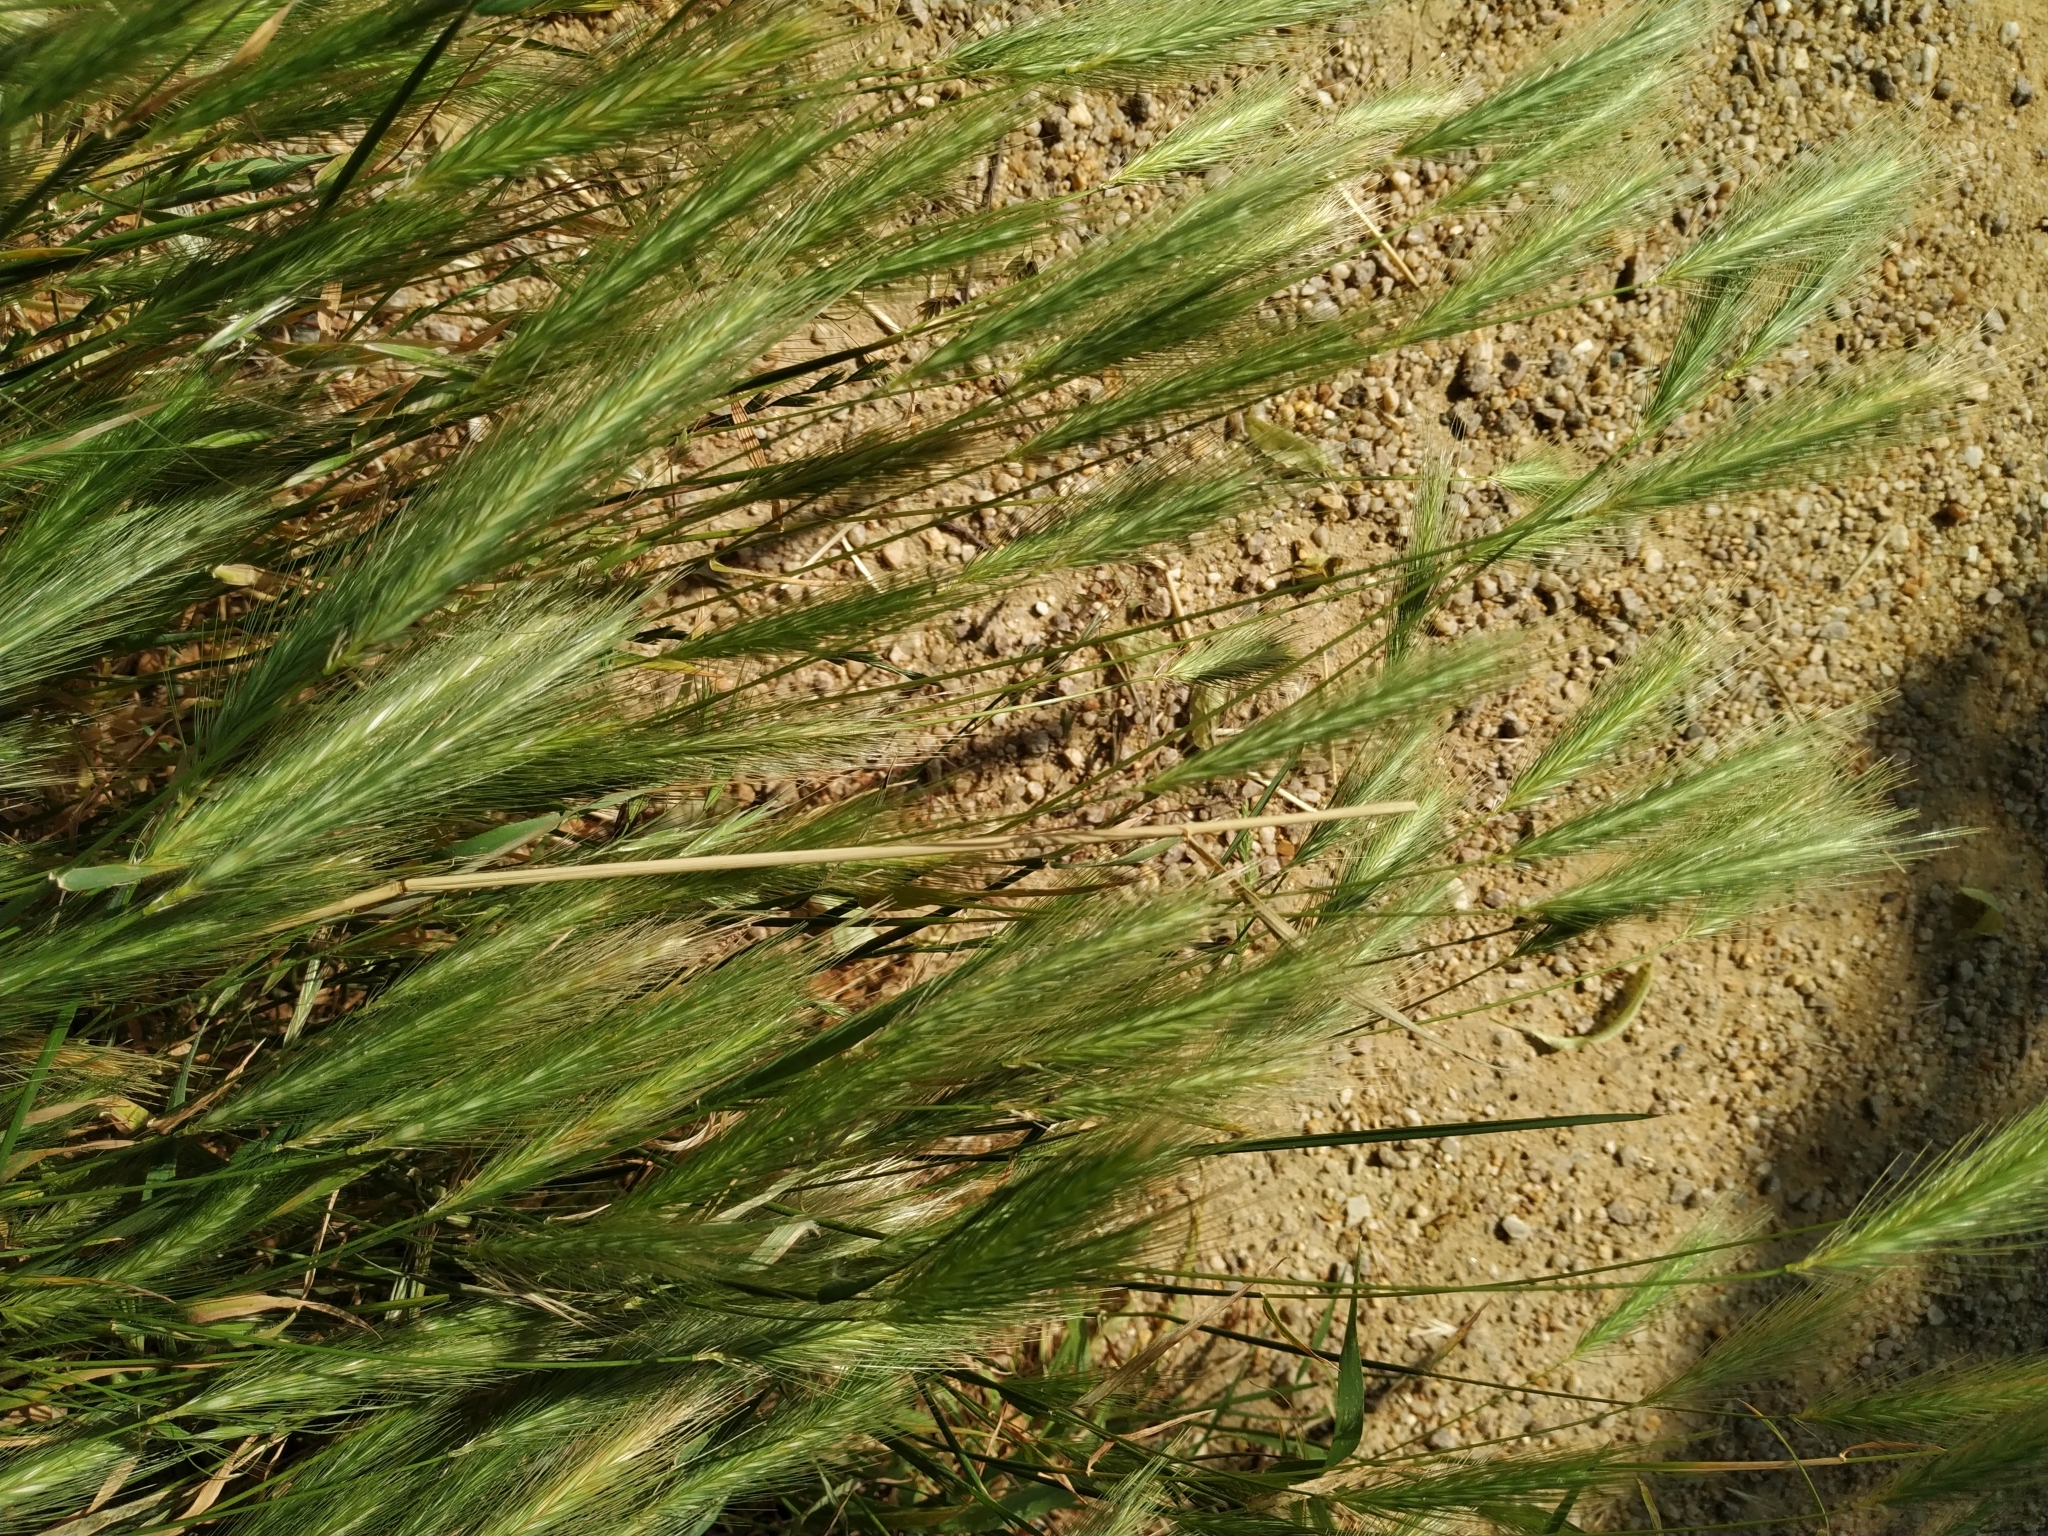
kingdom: Plantae
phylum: Tracheophyta
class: Liliopsida
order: Poales
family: Poaceae
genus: Hordeum
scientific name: Hordeum murinum
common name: Wall barley
